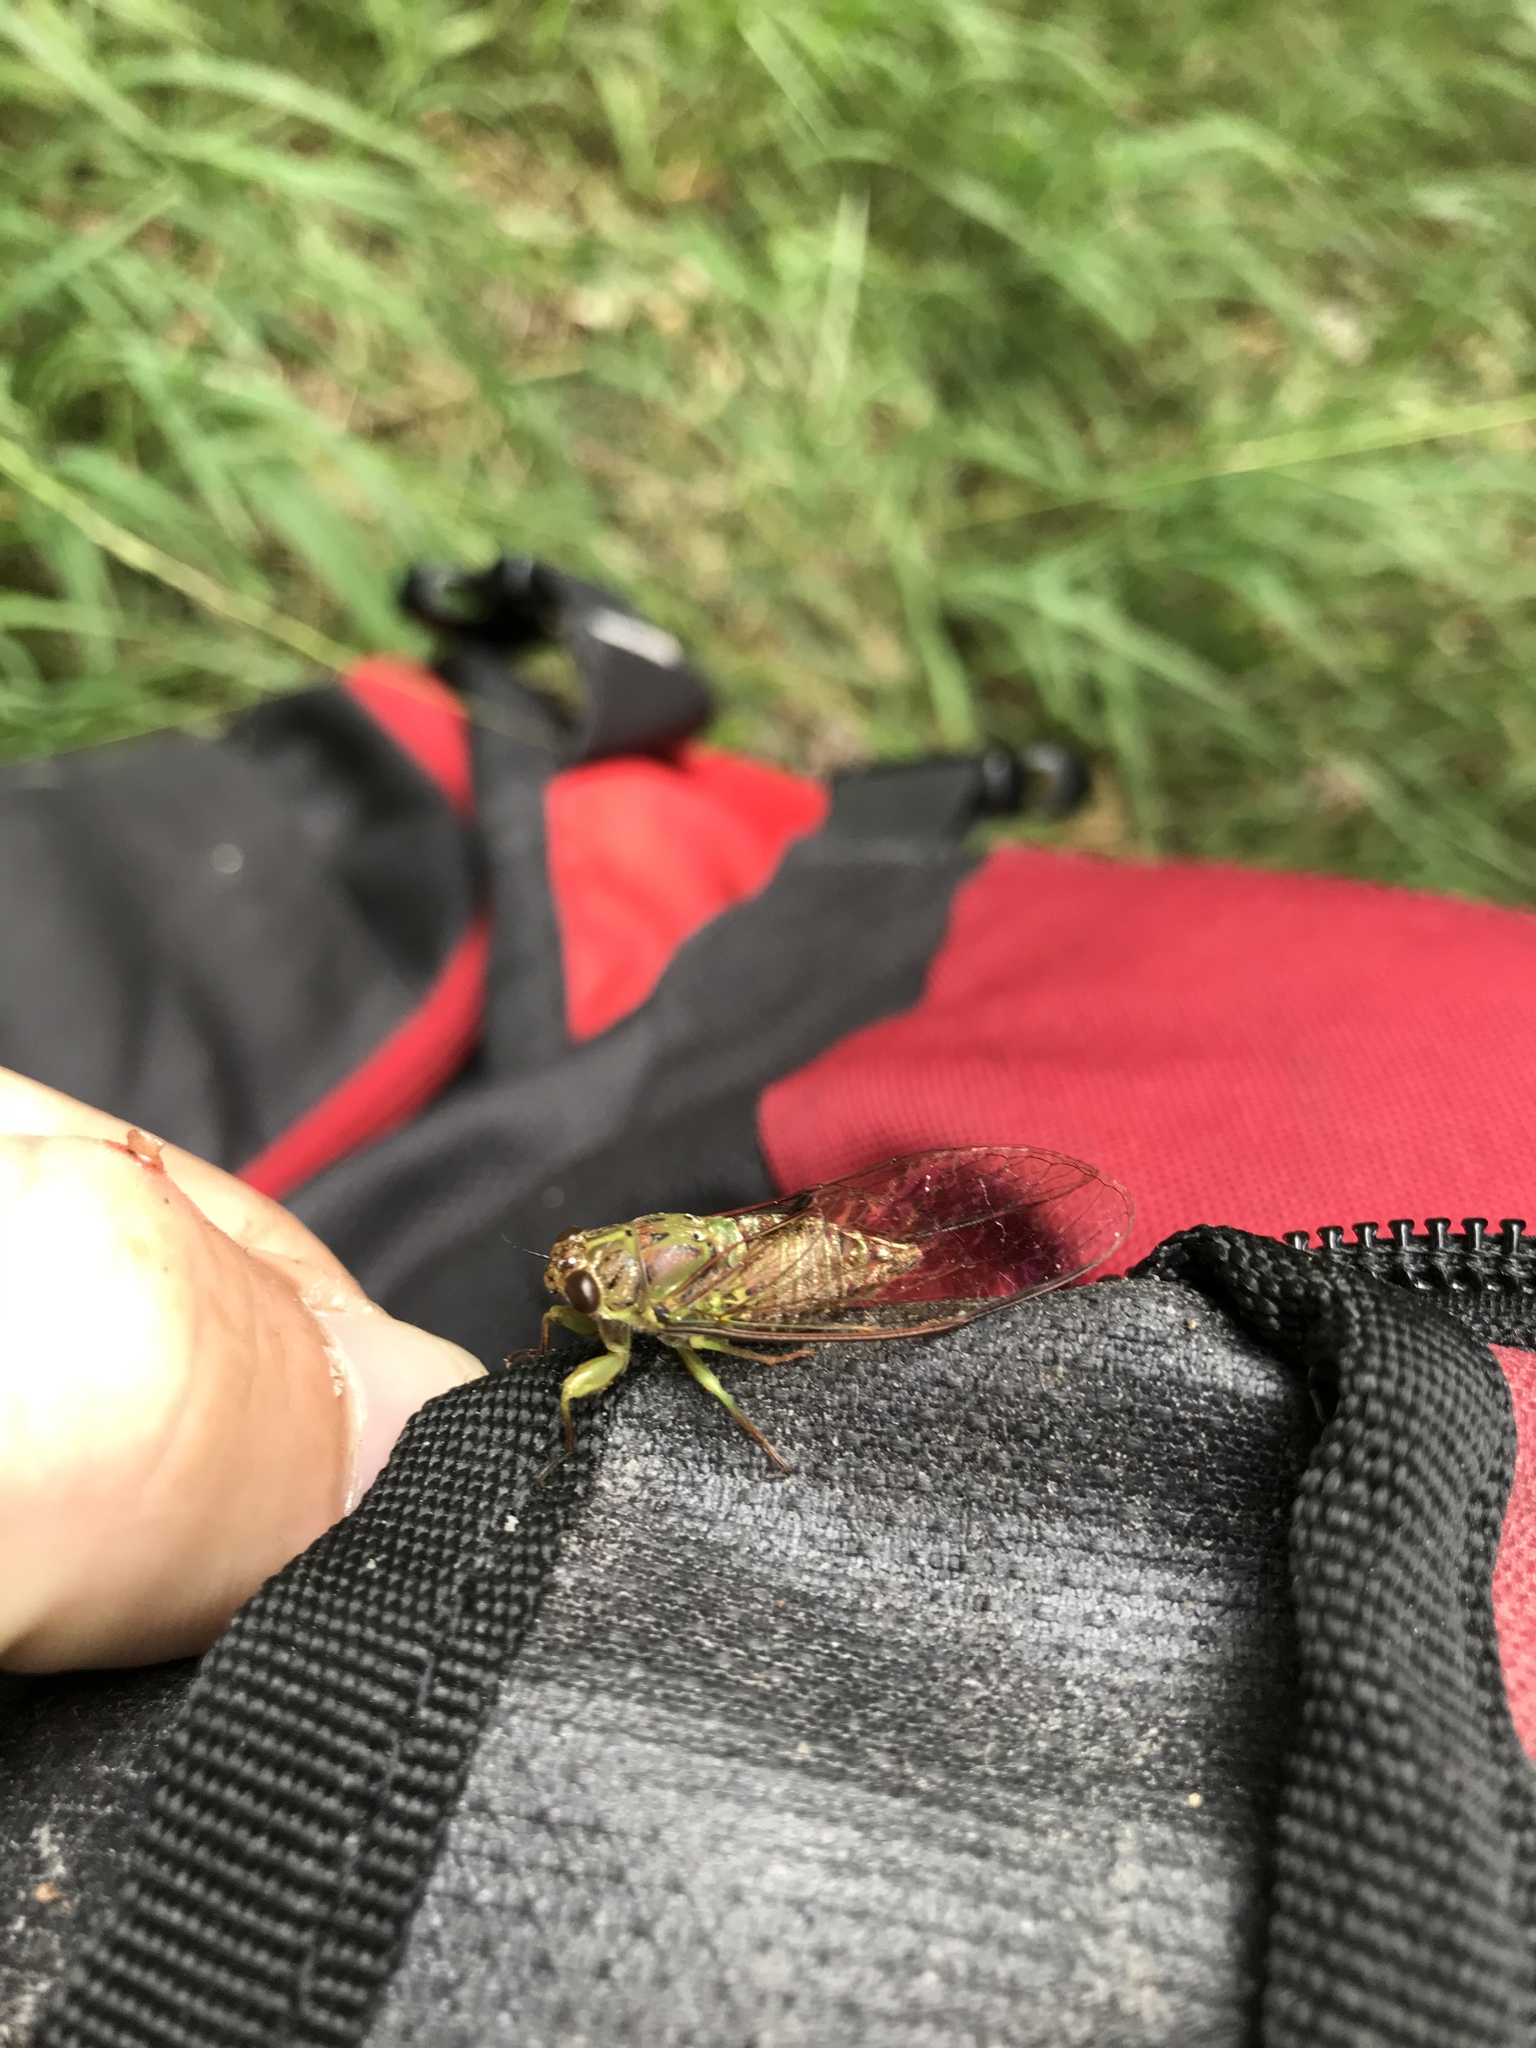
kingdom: Animalia
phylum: Arthropoda
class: Insecta
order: Hemiptera
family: Cicadidae
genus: Kikihia
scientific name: Kikihia scutellaris
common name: Lesser bronze cicada
